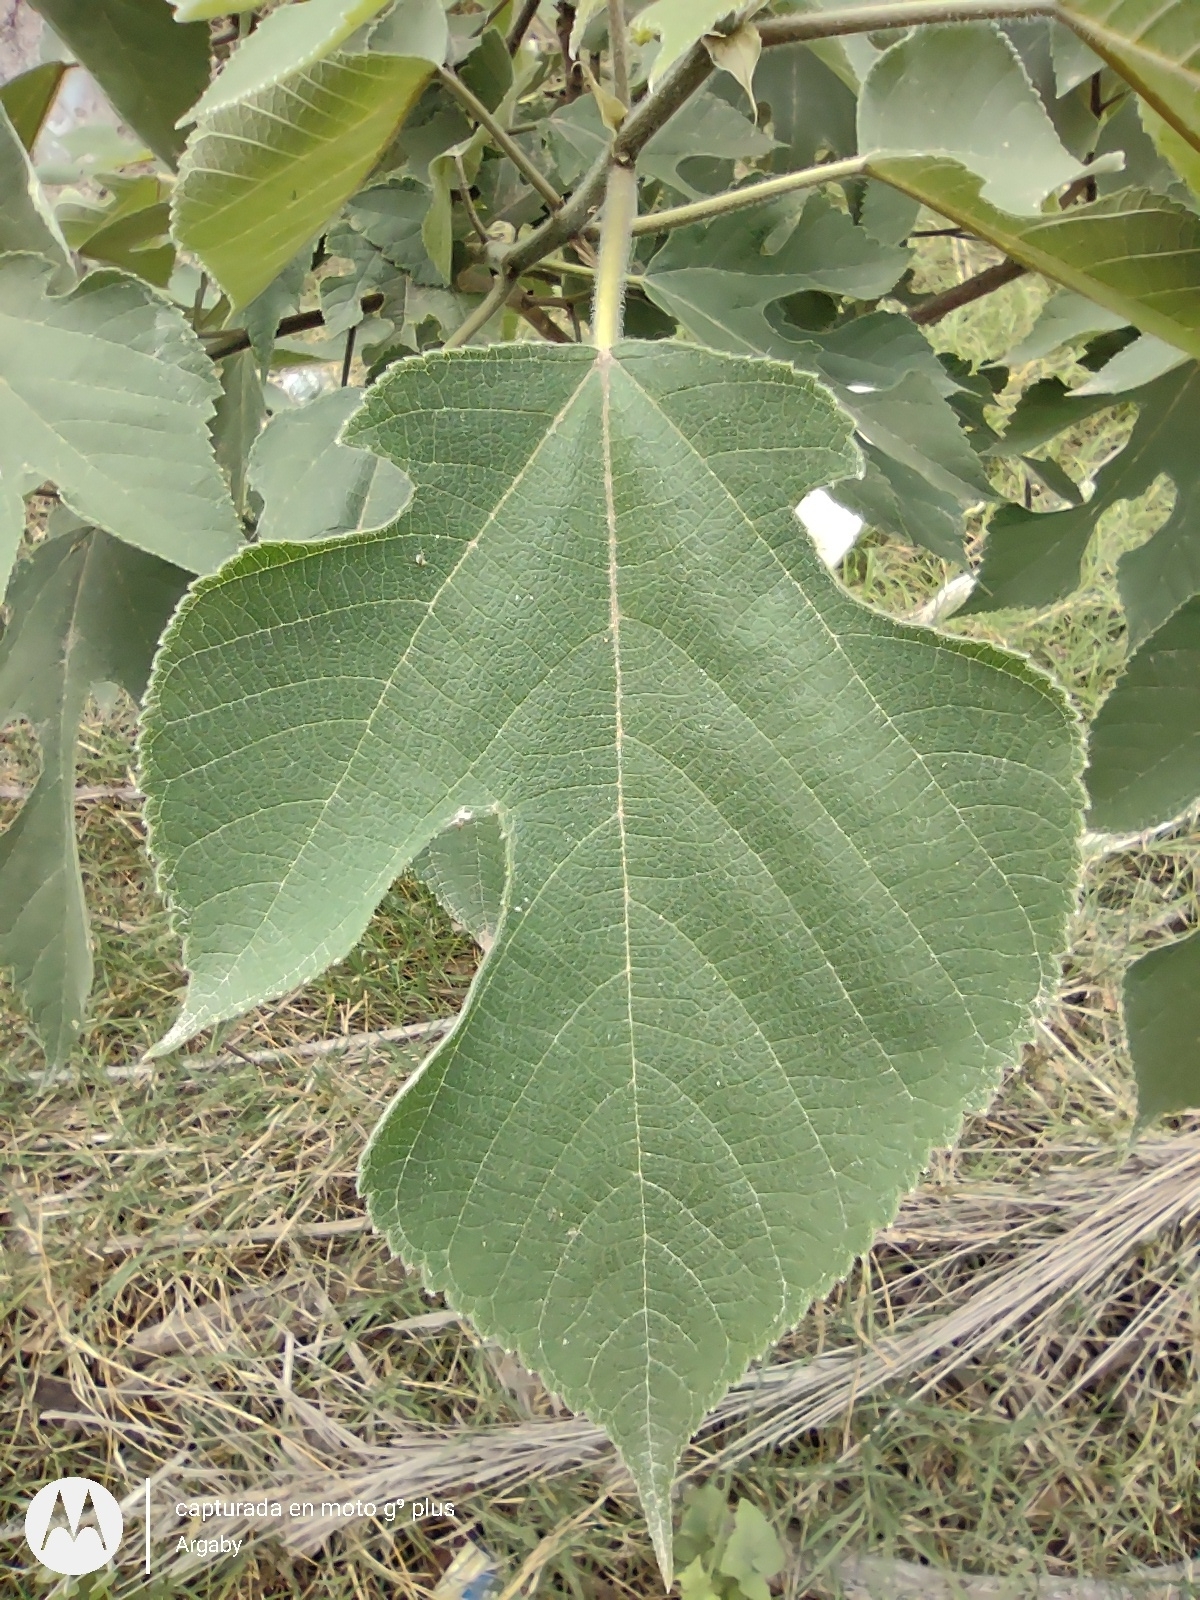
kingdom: Plantae
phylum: Tracheophyta
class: Magnoliopsida
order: Rosales
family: Moraceae
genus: Broussonetia
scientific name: Broussonetia papyrifera
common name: Paper mulberry
